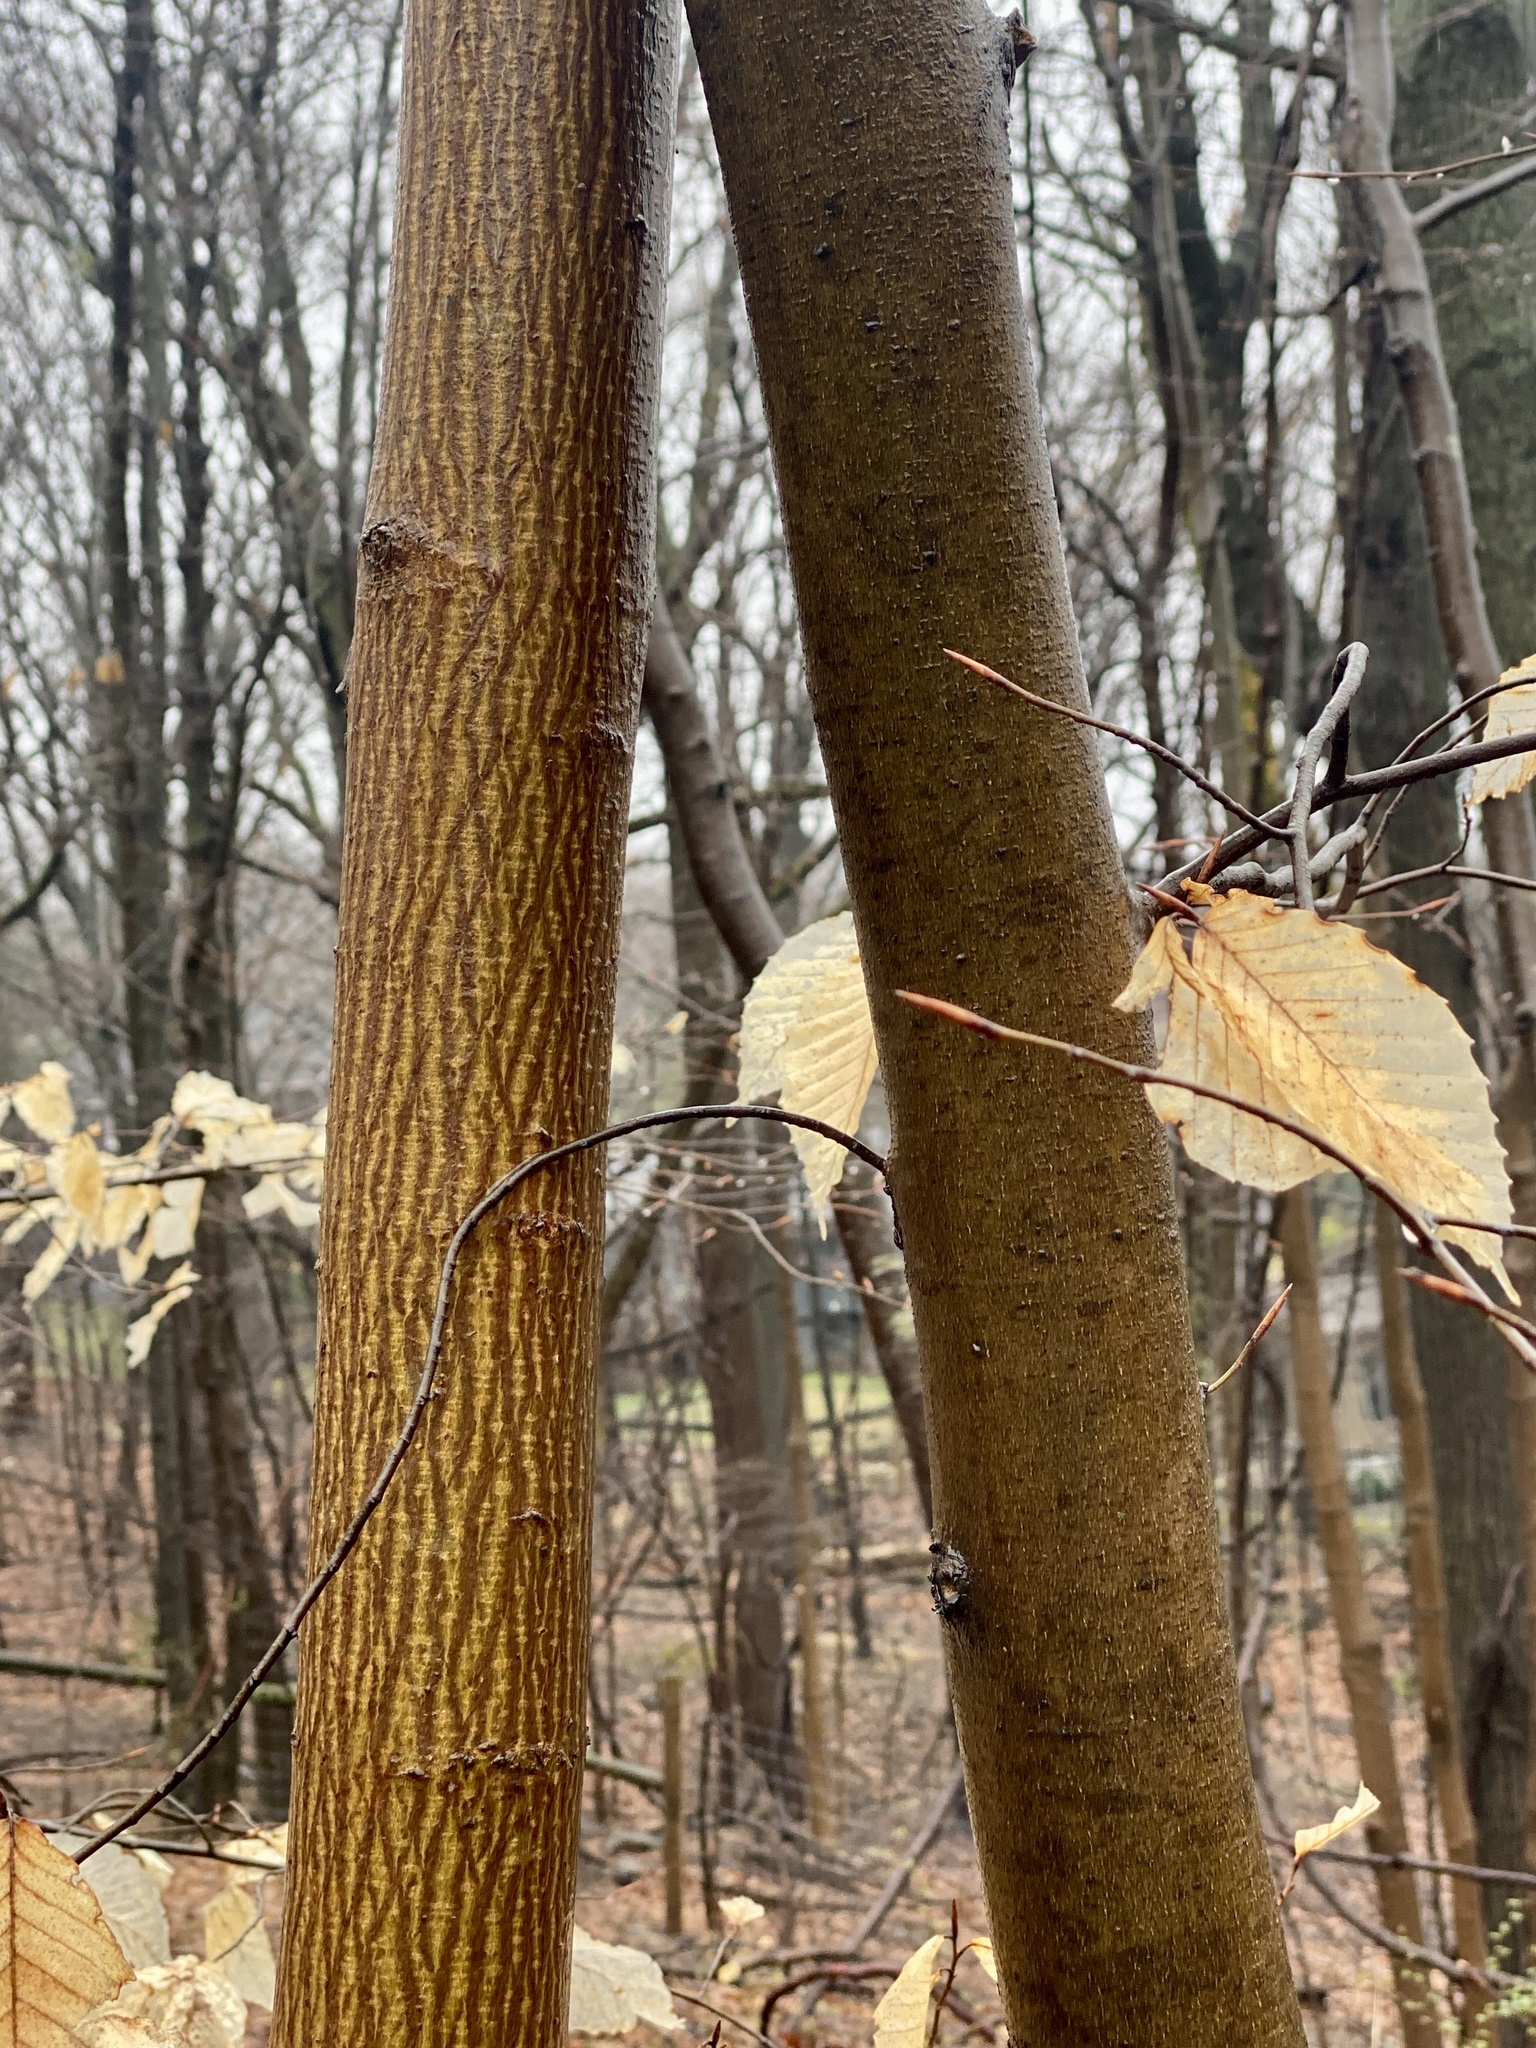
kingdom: Plantae
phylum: Tracheophyta
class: Magnoliopsida
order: Sapindales
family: Sapindaceae
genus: Acer
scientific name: Acer pensylvanicum
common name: Moosewood
